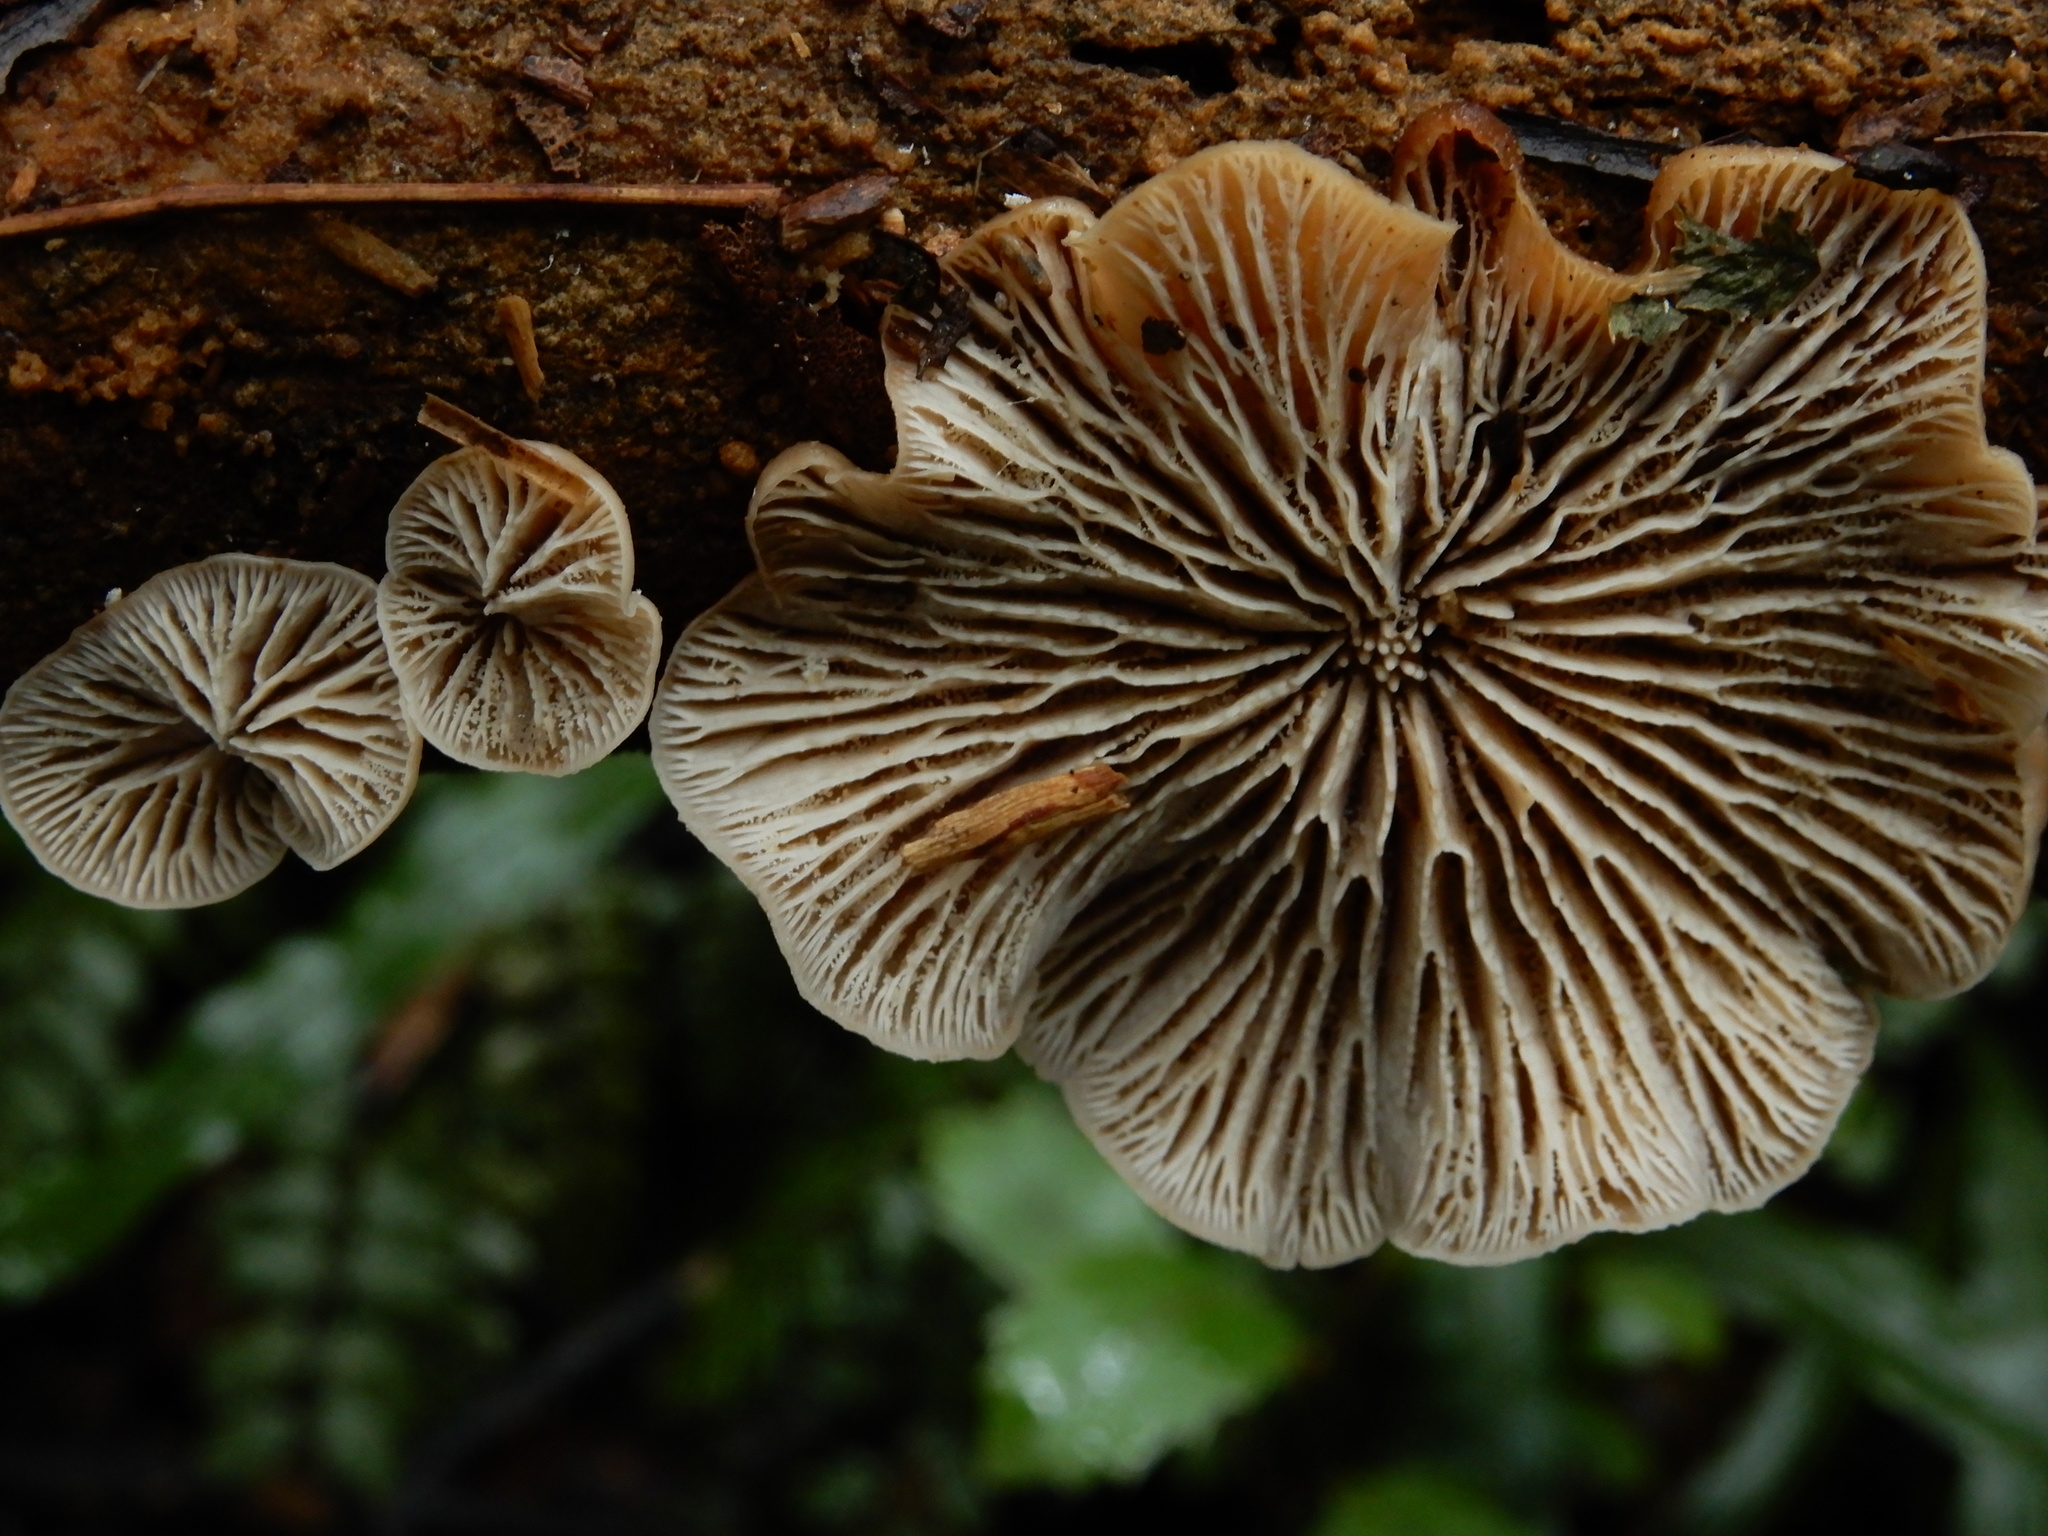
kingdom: Fungi
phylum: Basidiomycota
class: Agaricomycetes
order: Russulales
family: Auriscalpiaceae
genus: Lentinellus
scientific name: Lentinellus pulvinulus
